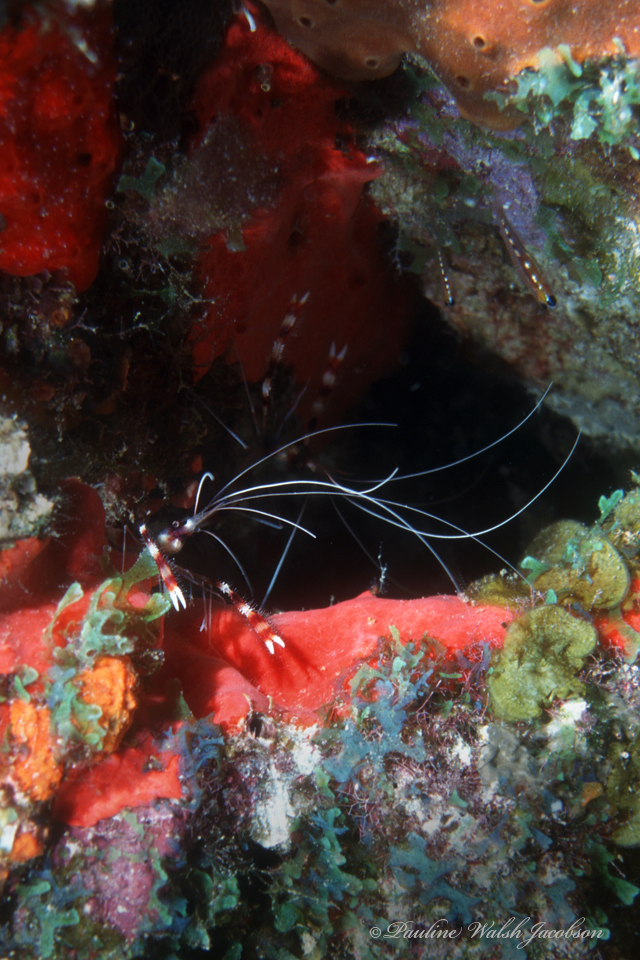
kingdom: Animalia
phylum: Arthropoda
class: Malacostraca
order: Decapoda
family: Stenopodidae
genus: Stenopus
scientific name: Stenopus hispidus
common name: Banded coral shrimp
